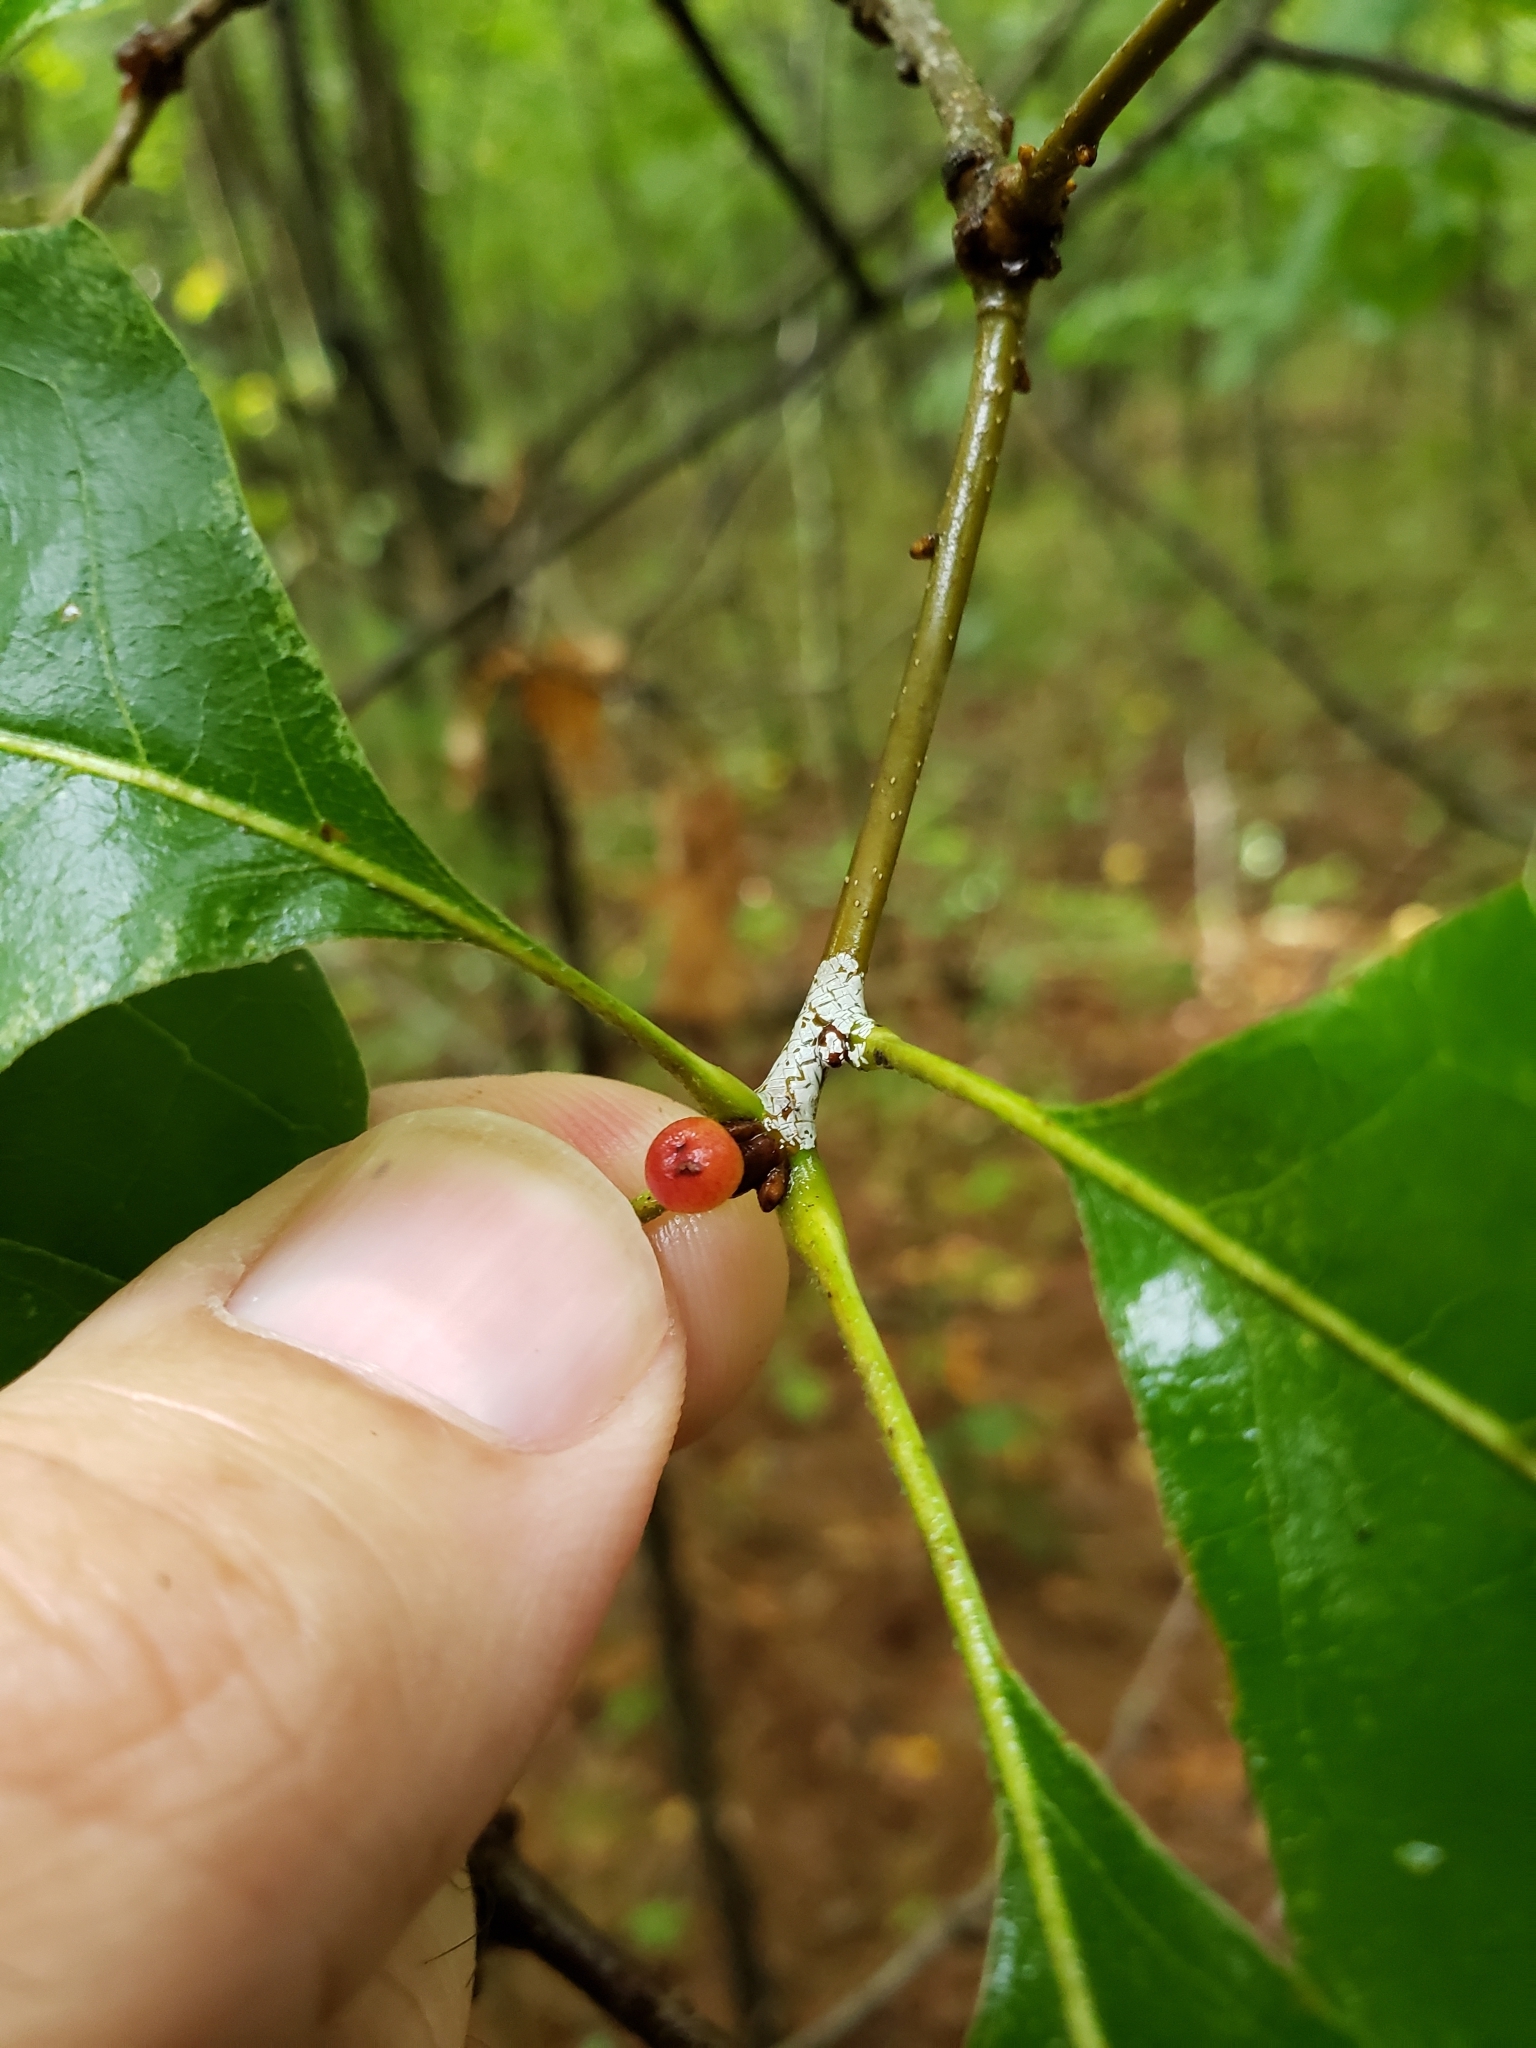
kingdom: Animalia
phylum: Arthropoda
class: Insecta
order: Hymenoptera
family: Cynipidae
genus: Amphibolips
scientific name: Amphibolips
